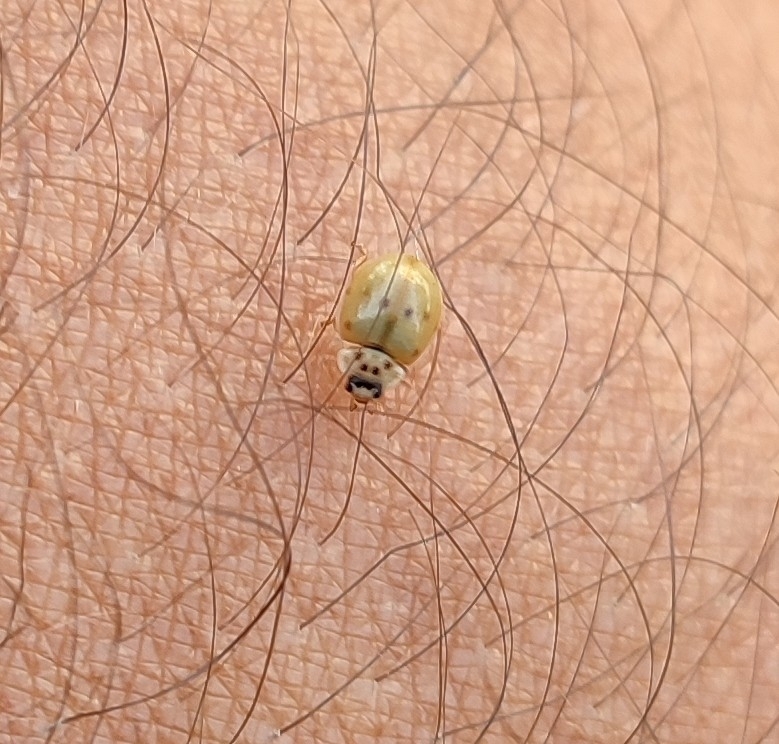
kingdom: Animalia
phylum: Arthropoda
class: Insecta
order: Coleoptera
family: Coccinellidae
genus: Adalia
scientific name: Adalia decempunctata
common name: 10-spot ladybird
